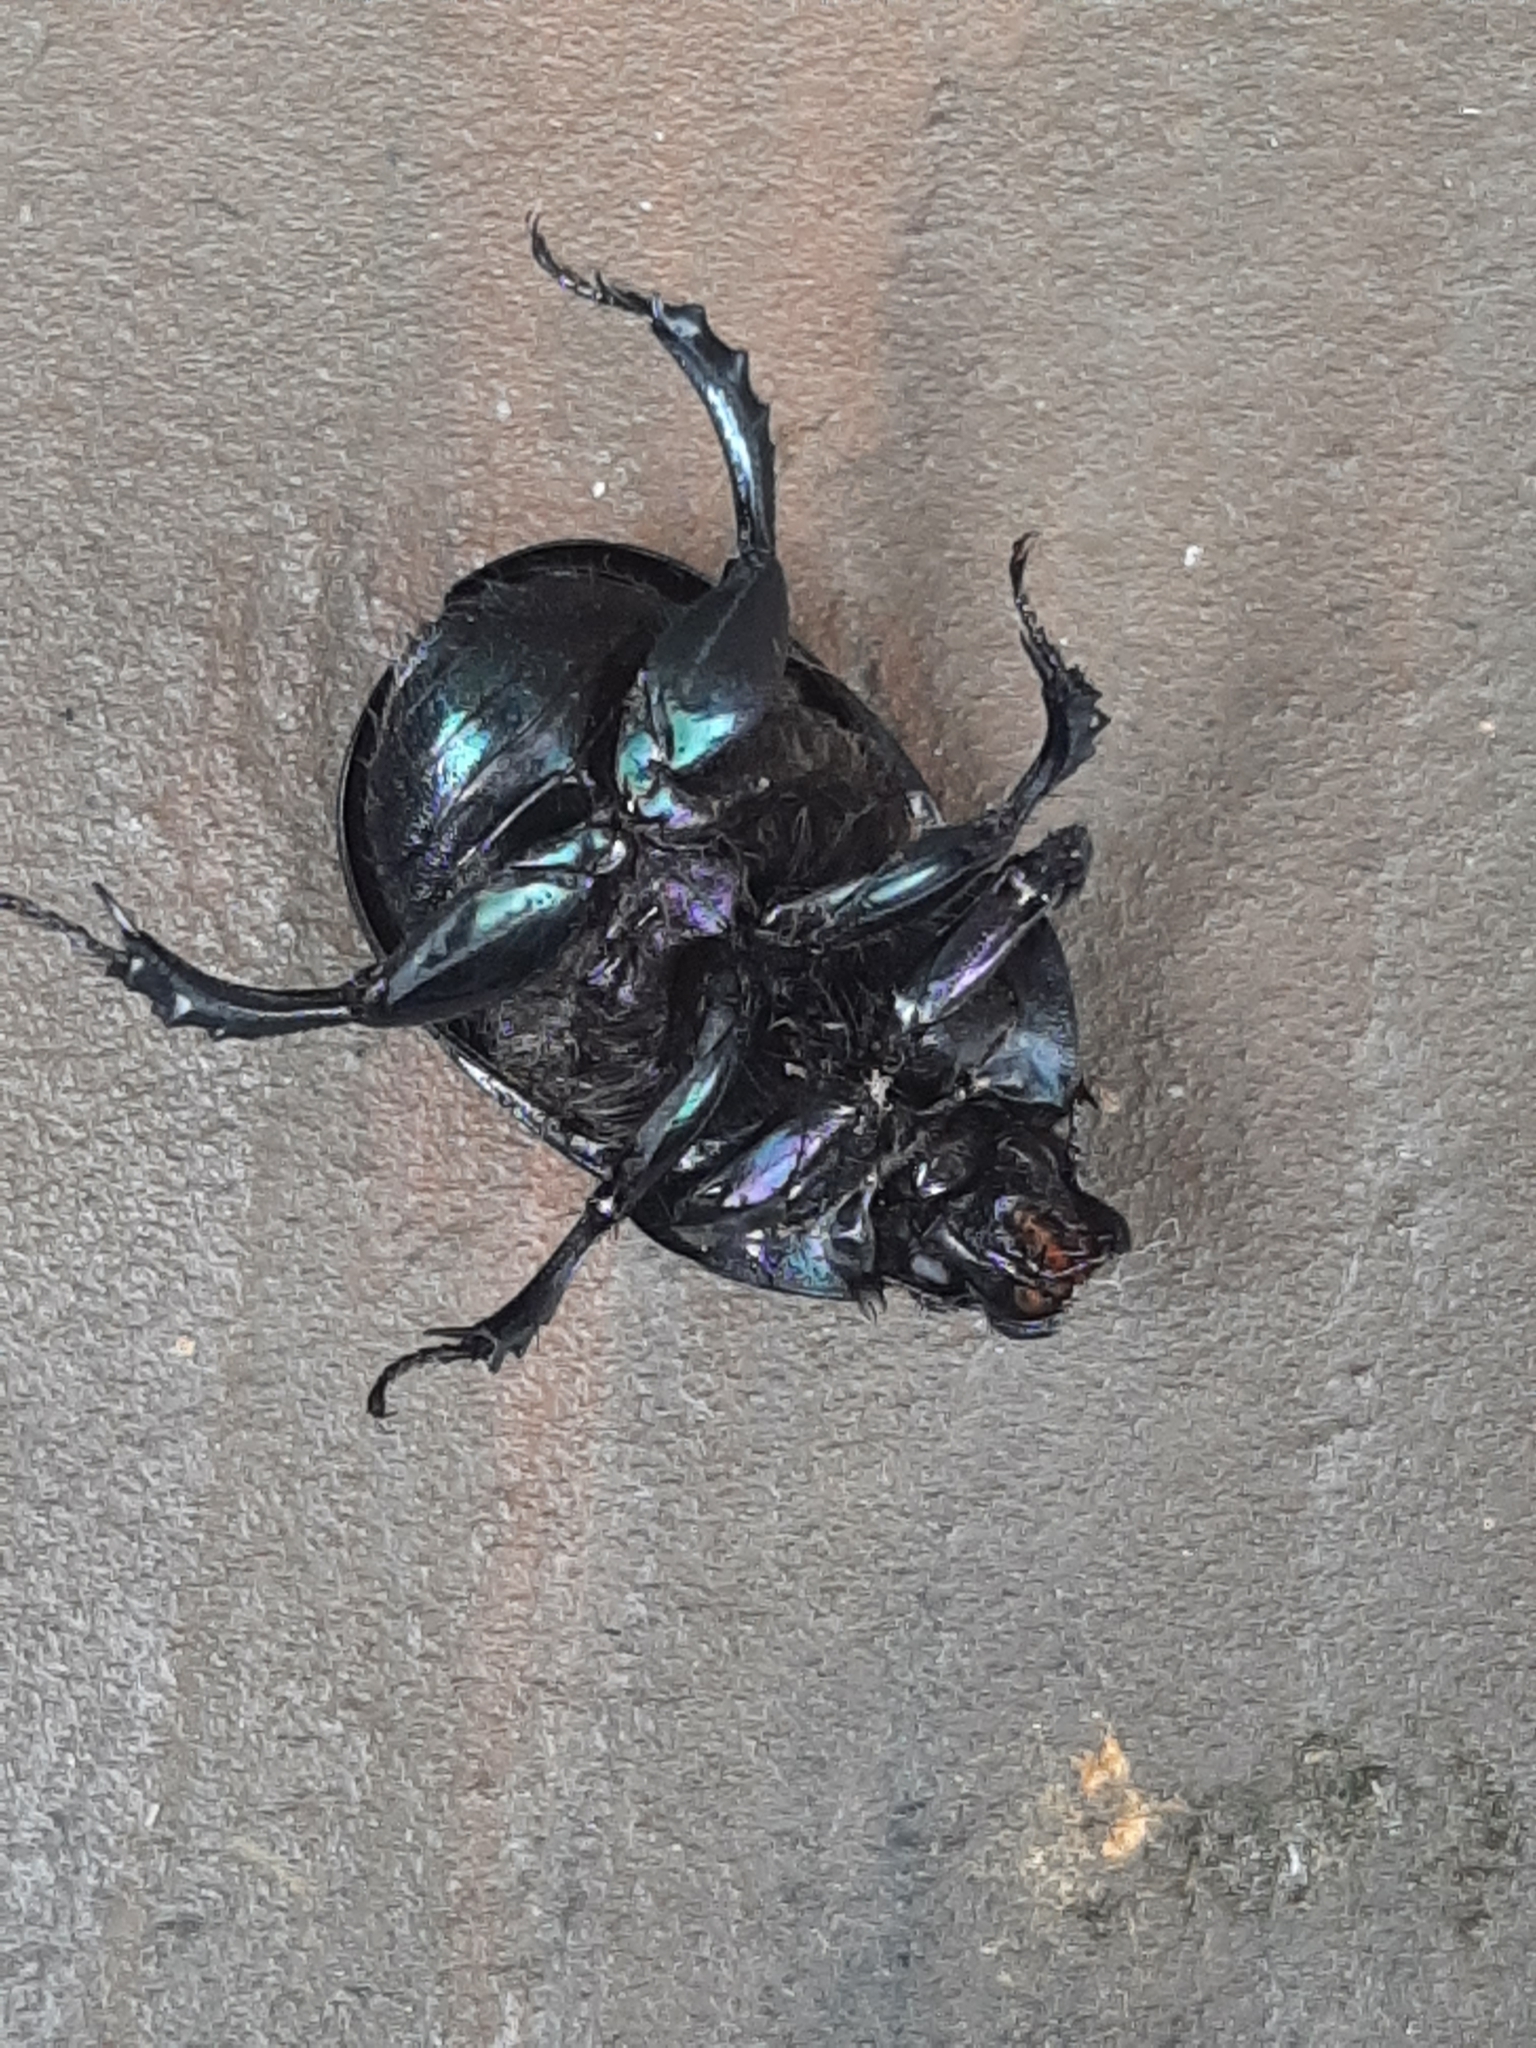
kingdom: Animalia
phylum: Arthropoda
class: Insecta
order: Coleoptera
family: Geotrupidae
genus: Anoplotrupes
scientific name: Anoplotrupes stercorosus
